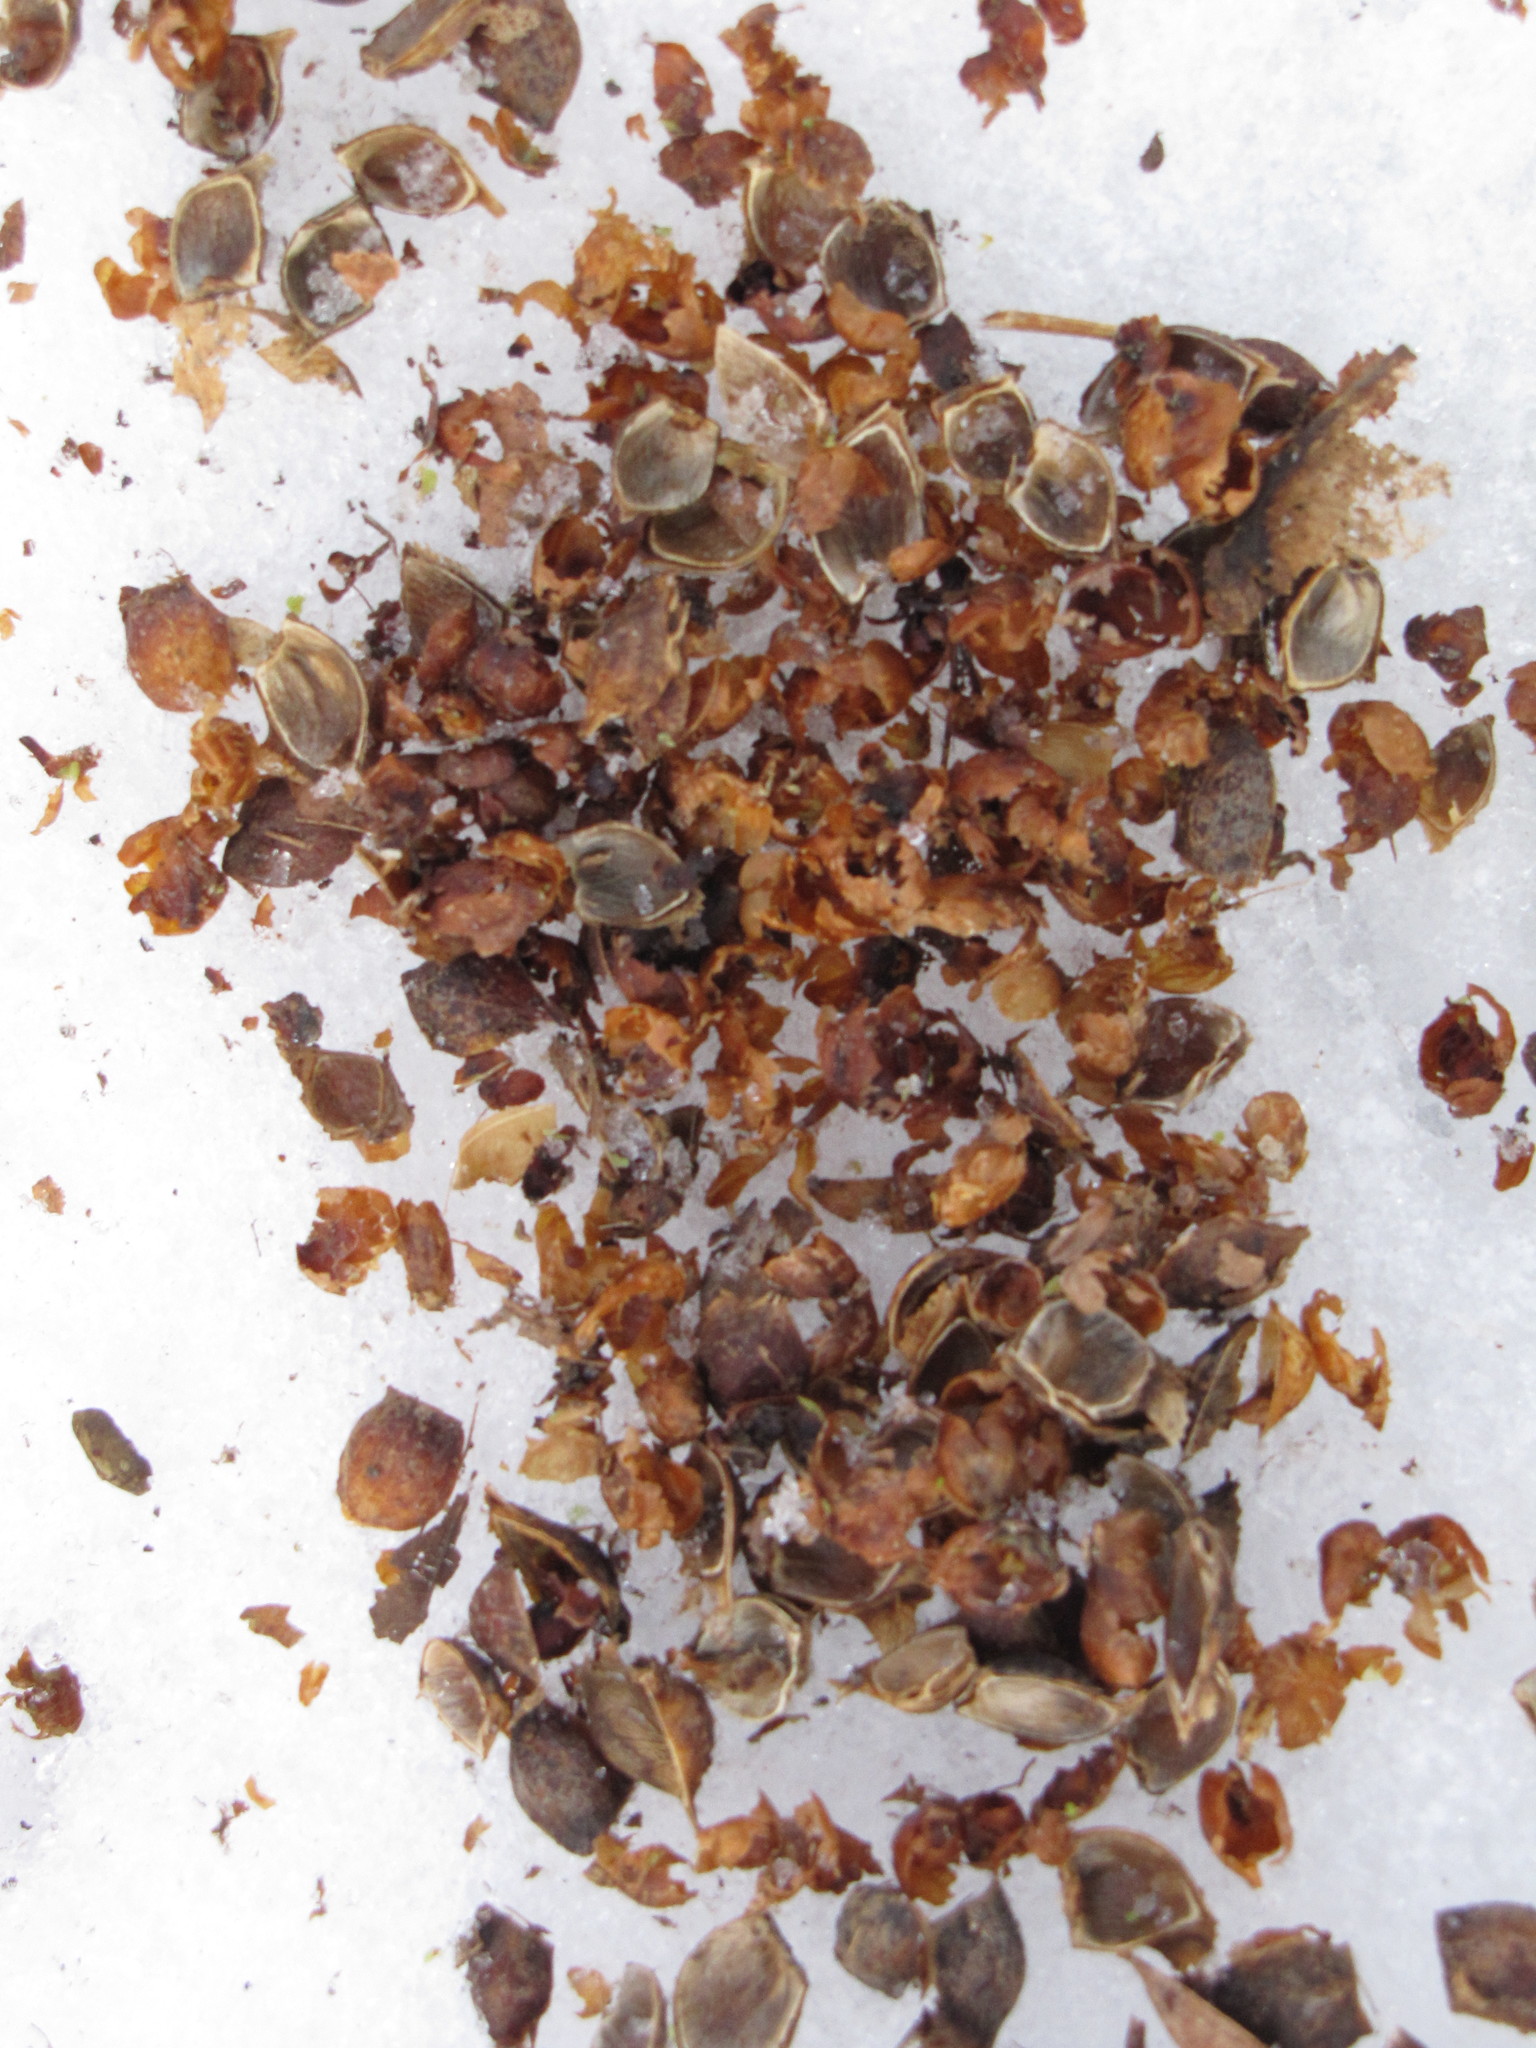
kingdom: Animalia
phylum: Chordata
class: Mammalia
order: Rodentia
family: Sciuridae
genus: Tamiasciurus
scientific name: Tamiasciurus hudsonicus
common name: Red squirrel
